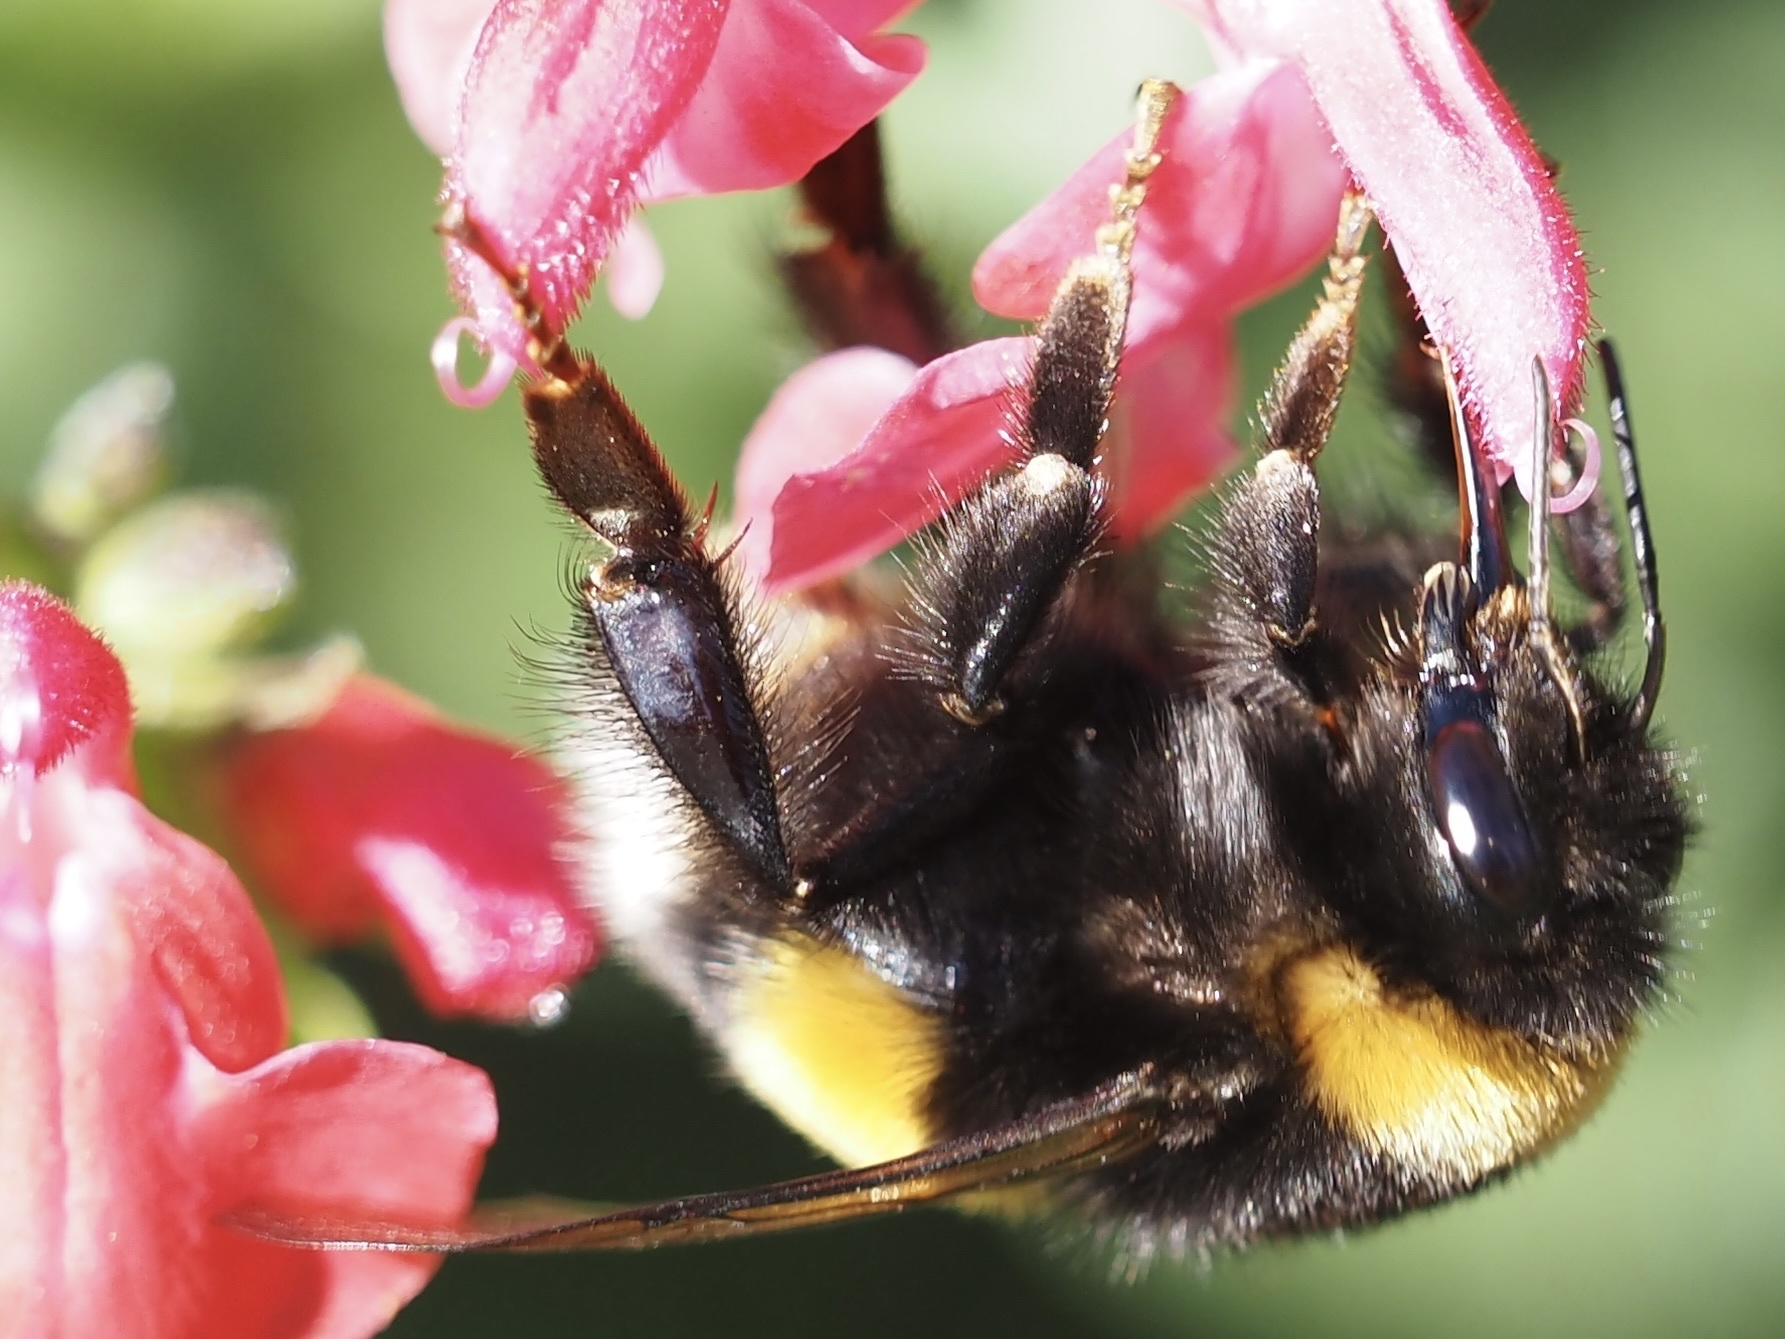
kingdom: Animalia
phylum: Arthropoda
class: Insecta
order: Hymenoptera
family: Apidae
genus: Bombus
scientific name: Bombus
